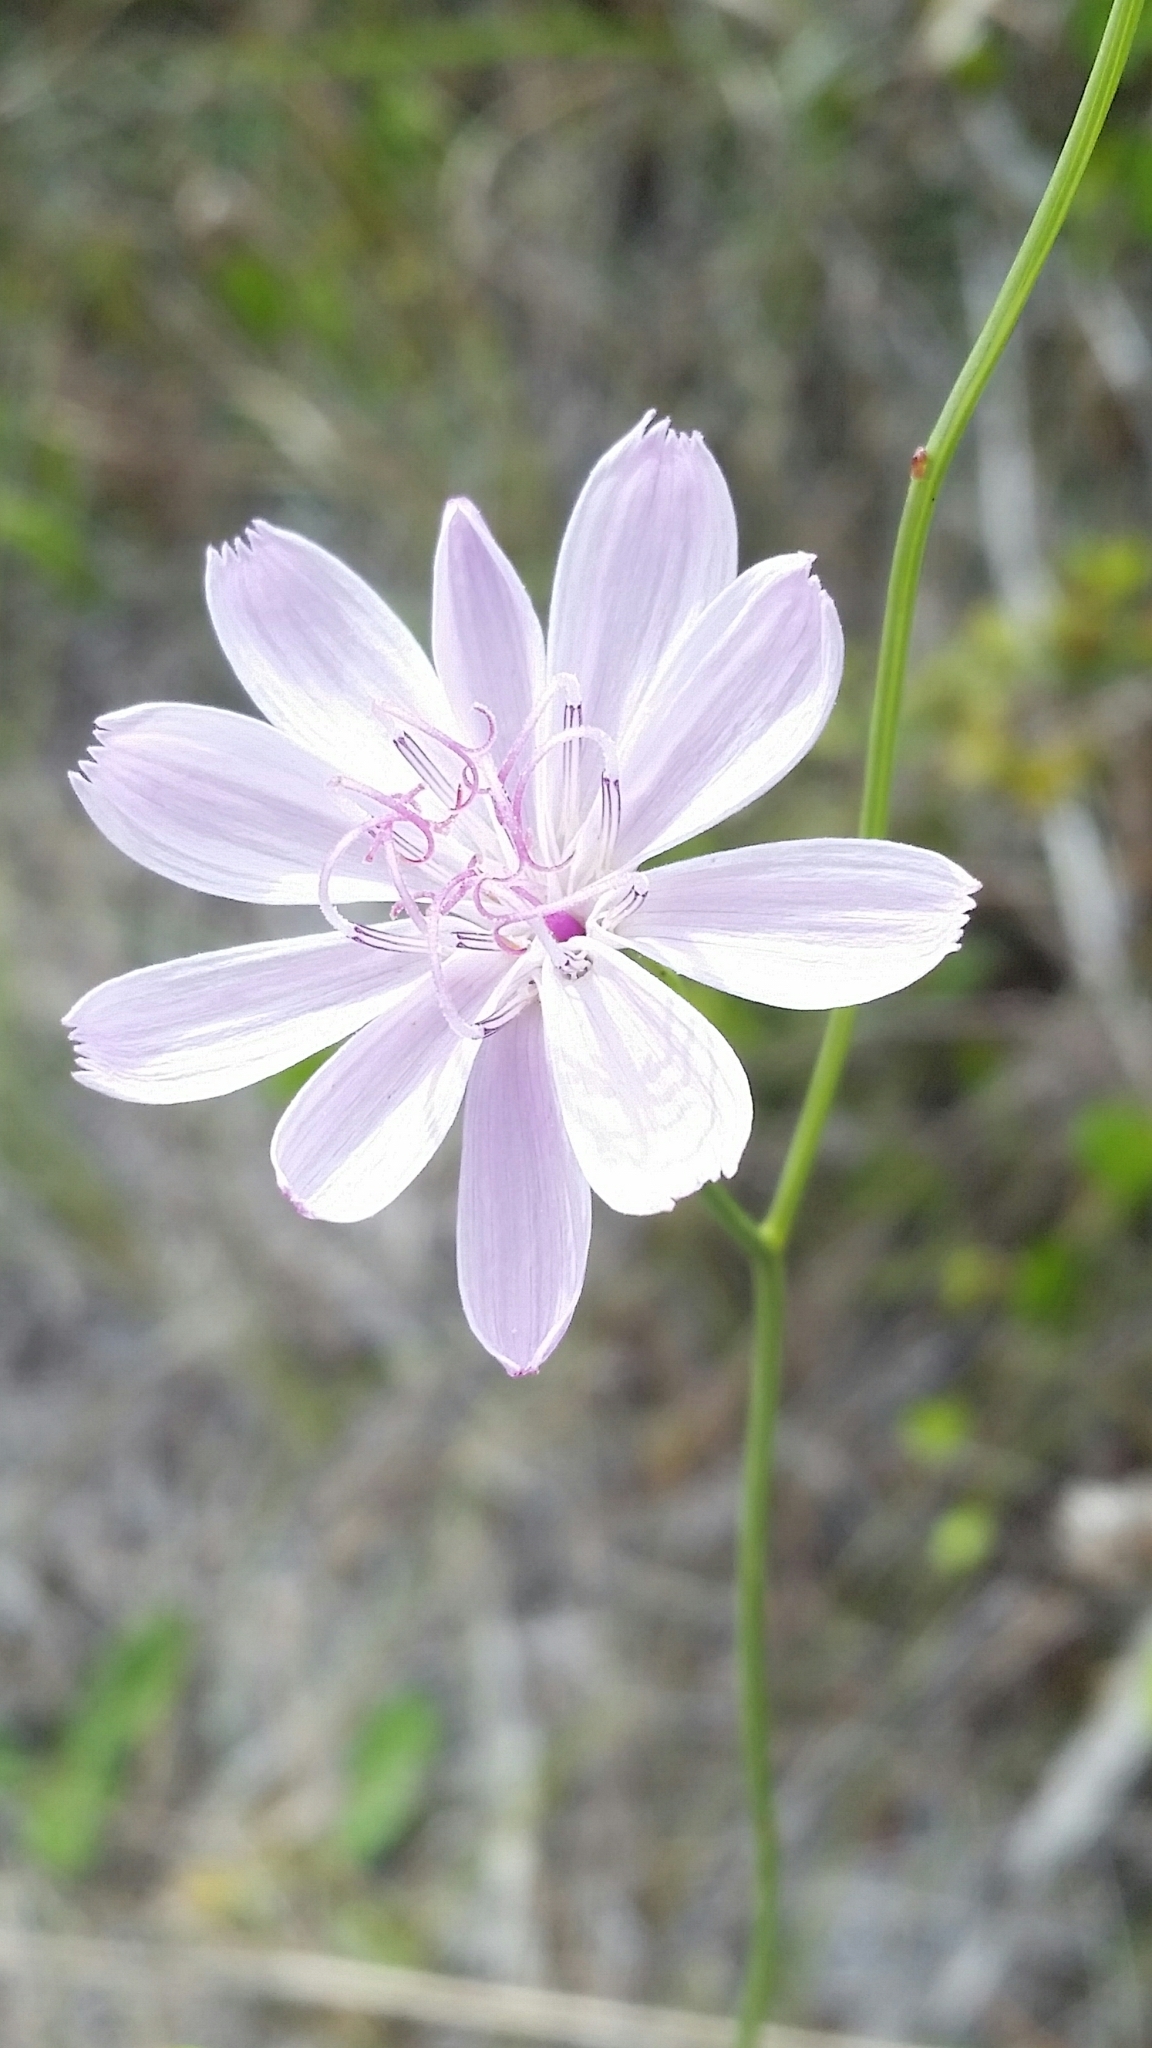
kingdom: Plantae
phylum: Tracheophyta
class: Magnoliopsida
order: Asterales
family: Asteraceae
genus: Lygodesmia
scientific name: Lygodesmia aphylla
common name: Rose-rush
